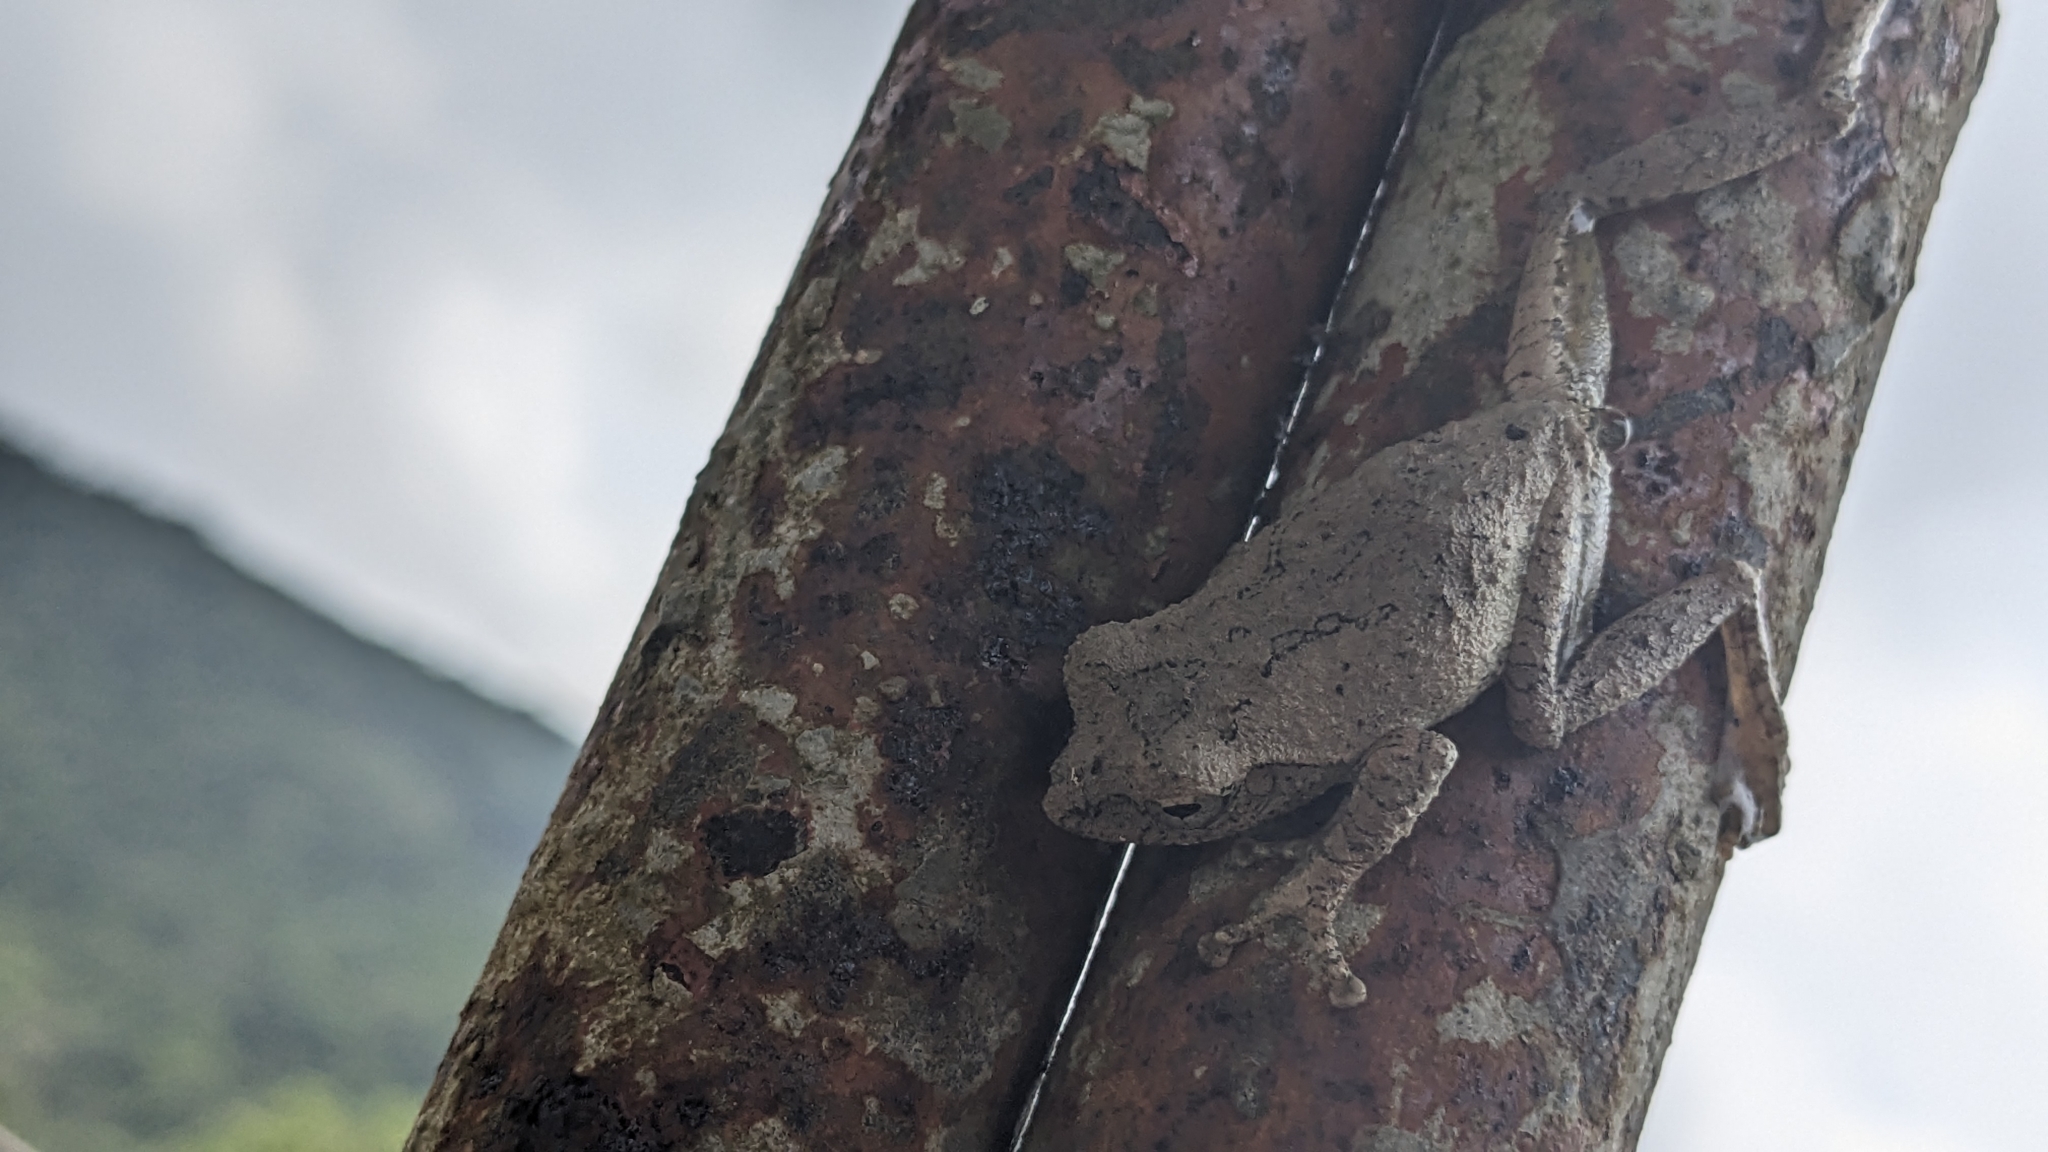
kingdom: Animalia
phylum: Chordata
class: Amphibia
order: Anura
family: Rhacophoridae
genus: Kurixalus
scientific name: Kurixalus idiootocus
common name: Temple treefrog
